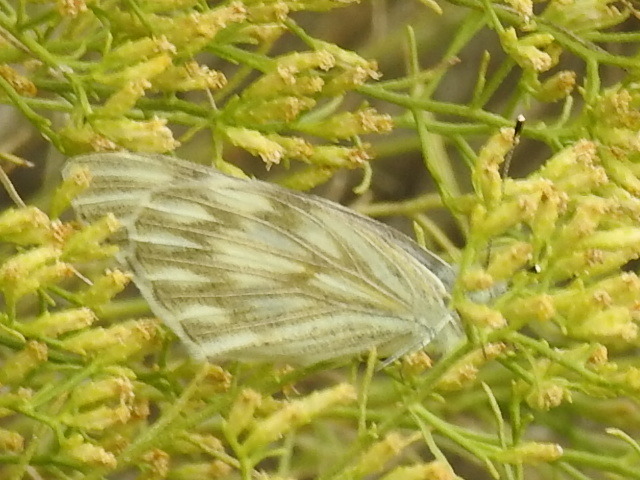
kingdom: Animalia
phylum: Arthropoda
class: Insecta
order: Lepidoptera
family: Pieridae
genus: Pontia
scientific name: Pontia protodice
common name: Checkered white
